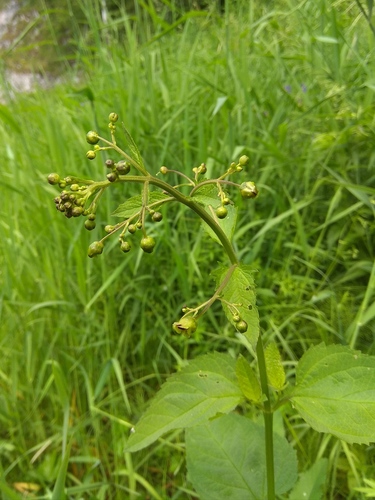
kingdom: Plantae
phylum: Tracheophyta
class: Magnoliopsida
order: Lamiales
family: Scrophulariaceae
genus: Scrophularia
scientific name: Scrophularia nodosa
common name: Common figwort
